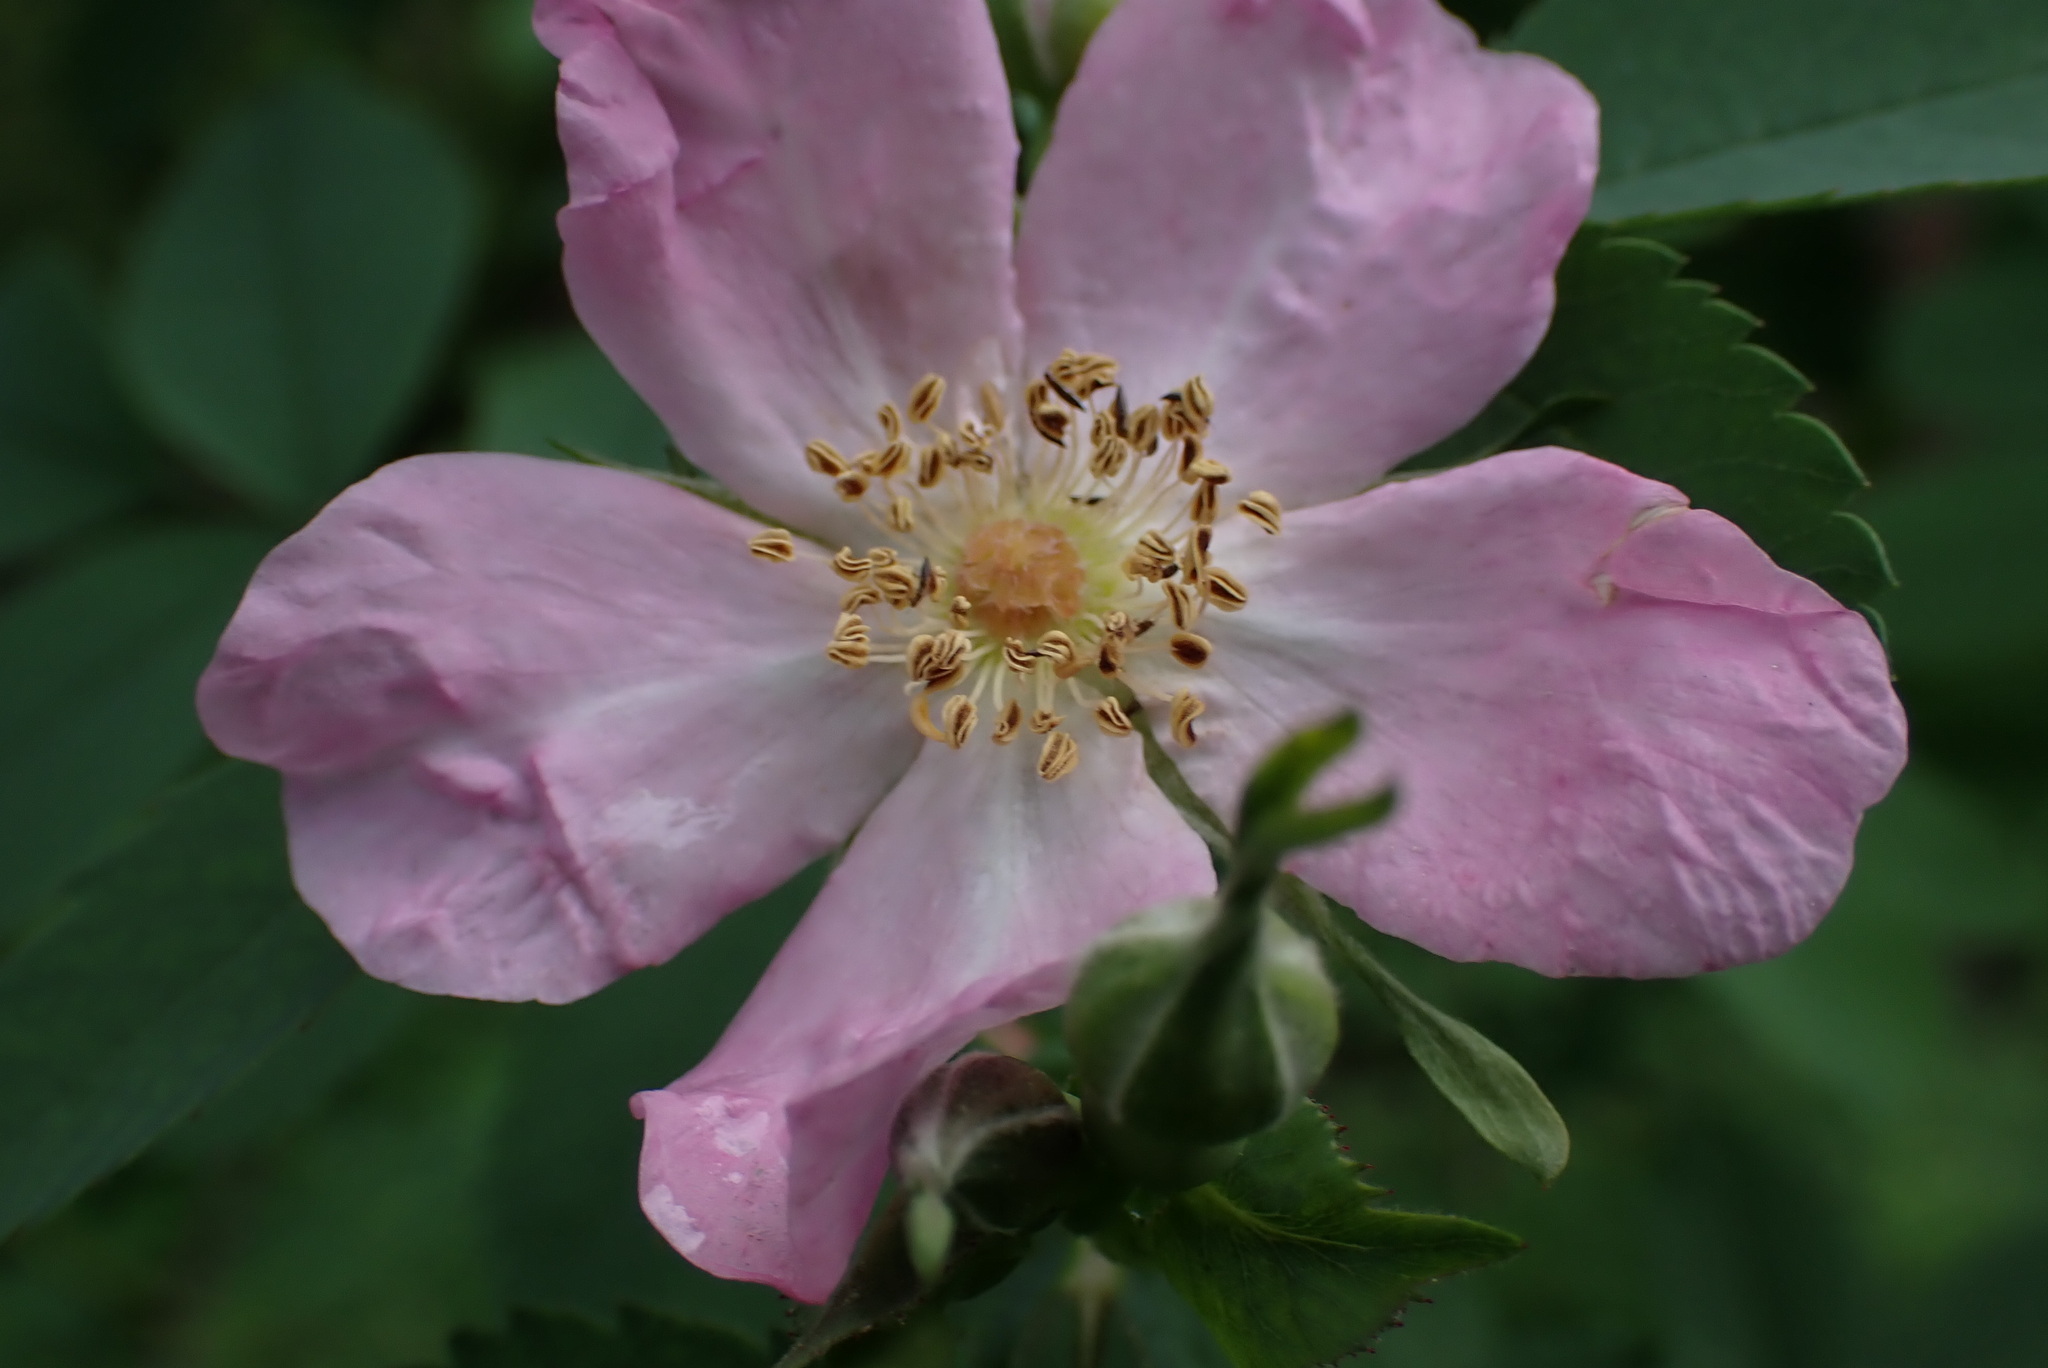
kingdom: Plantae
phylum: Tracheophyta
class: Magnoliopsida
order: Rosales
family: Rosaceae
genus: Rosa
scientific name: Rosa nutkana
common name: Nootka rose
